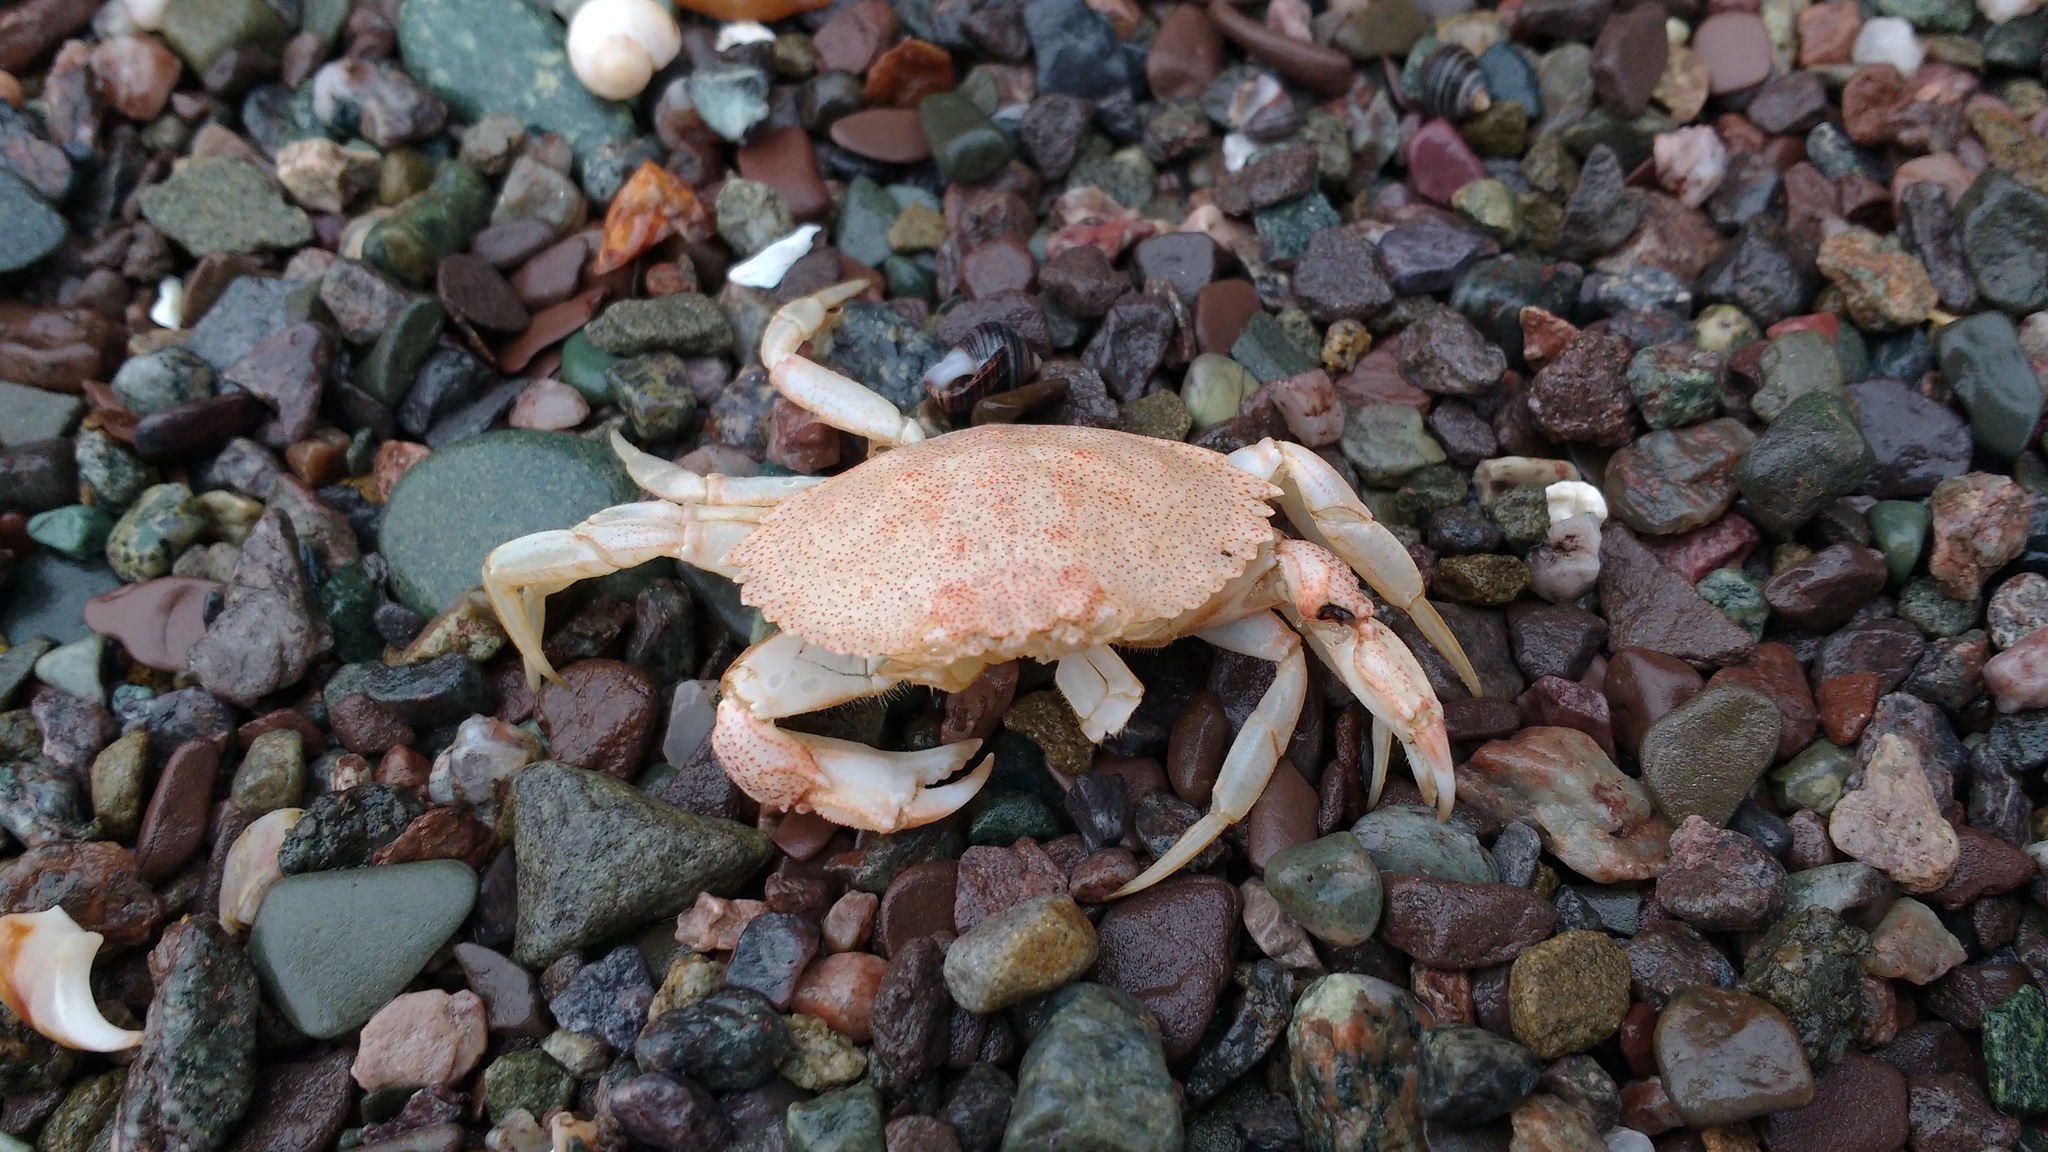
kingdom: Animalia
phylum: Arthropoda
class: Malacostraca
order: Decapoda
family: Cancridae
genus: Cancer
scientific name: Cancer irroratus
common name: Atlantic rock crab
